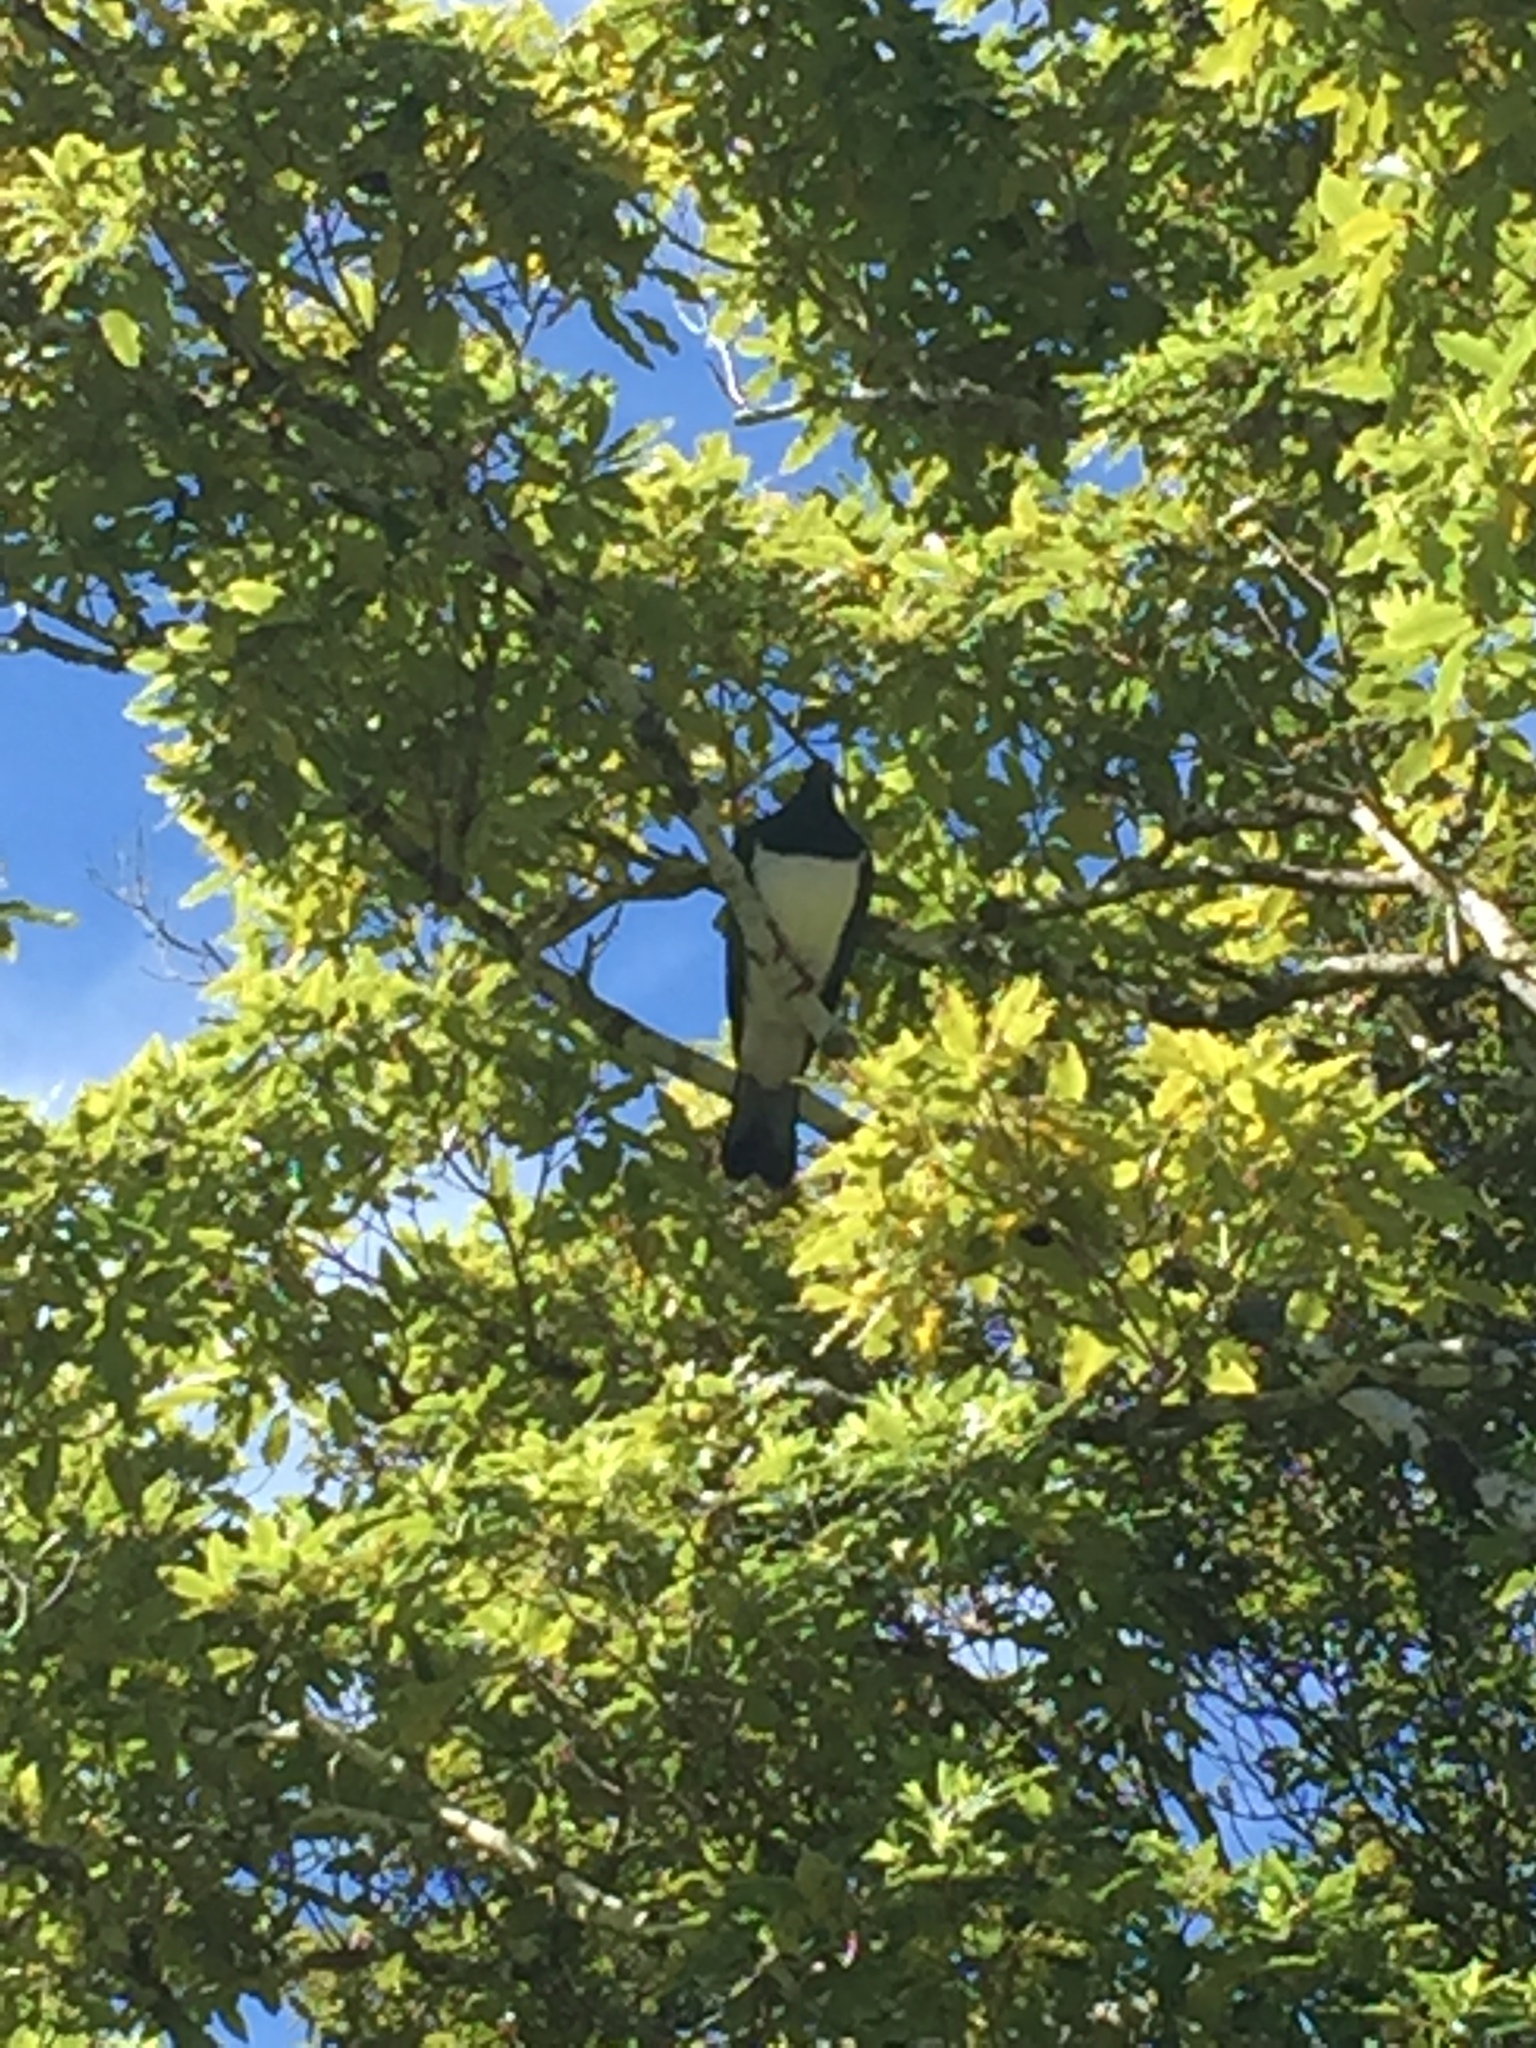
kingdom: Animalia
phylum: Chordata
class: Aves
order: Columbiformes
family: Columbidae
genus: Hemiphaga
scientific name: Hemiphaga novaeseelandiae
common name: New zealand pigeon
